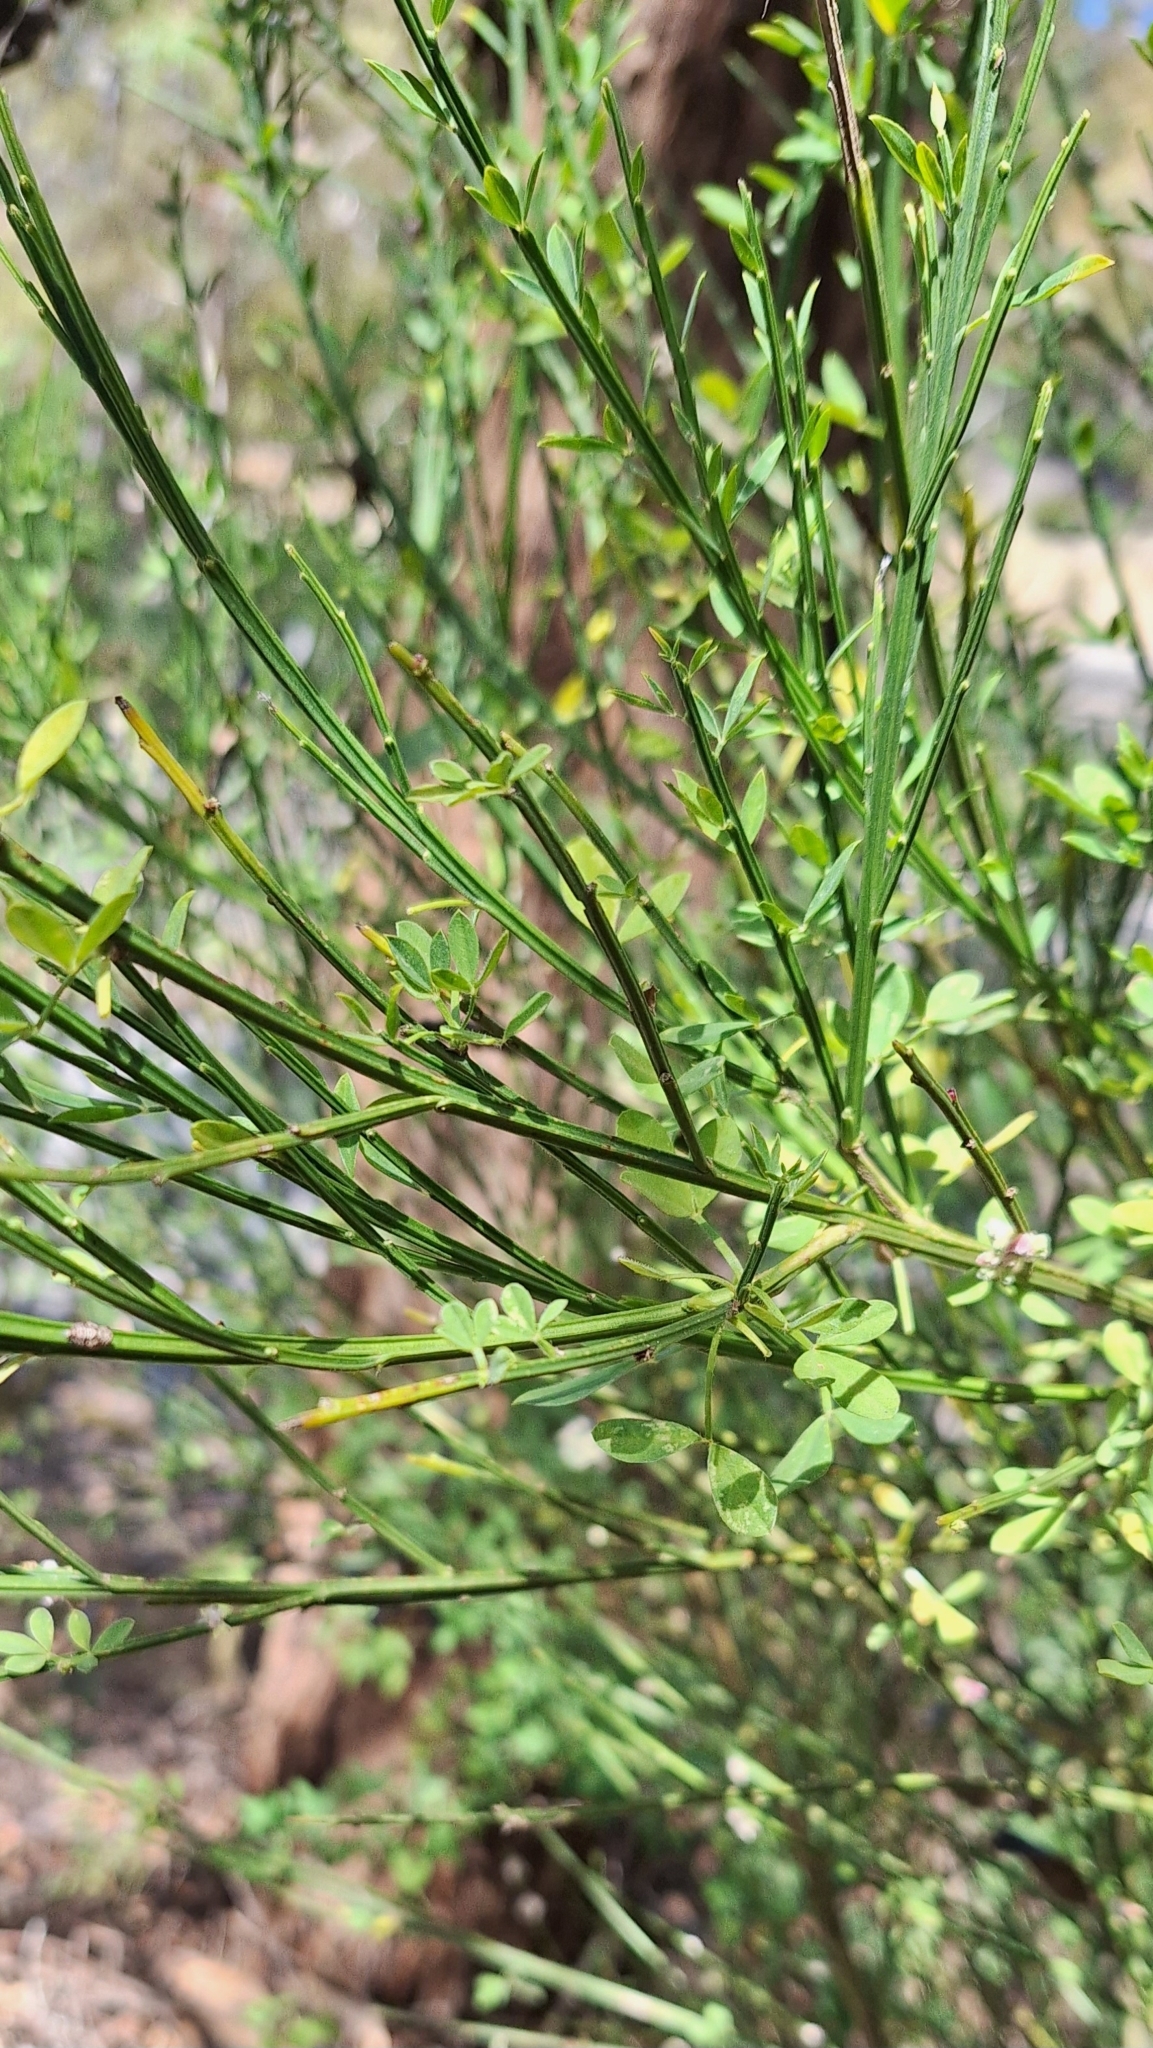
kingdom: Plantae
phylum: Tracheophyta
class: Magnoliopsida
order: Fabales
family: Fabaceae
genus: Cytisus
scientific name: Cytisus scoparius
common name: Scotch broom
